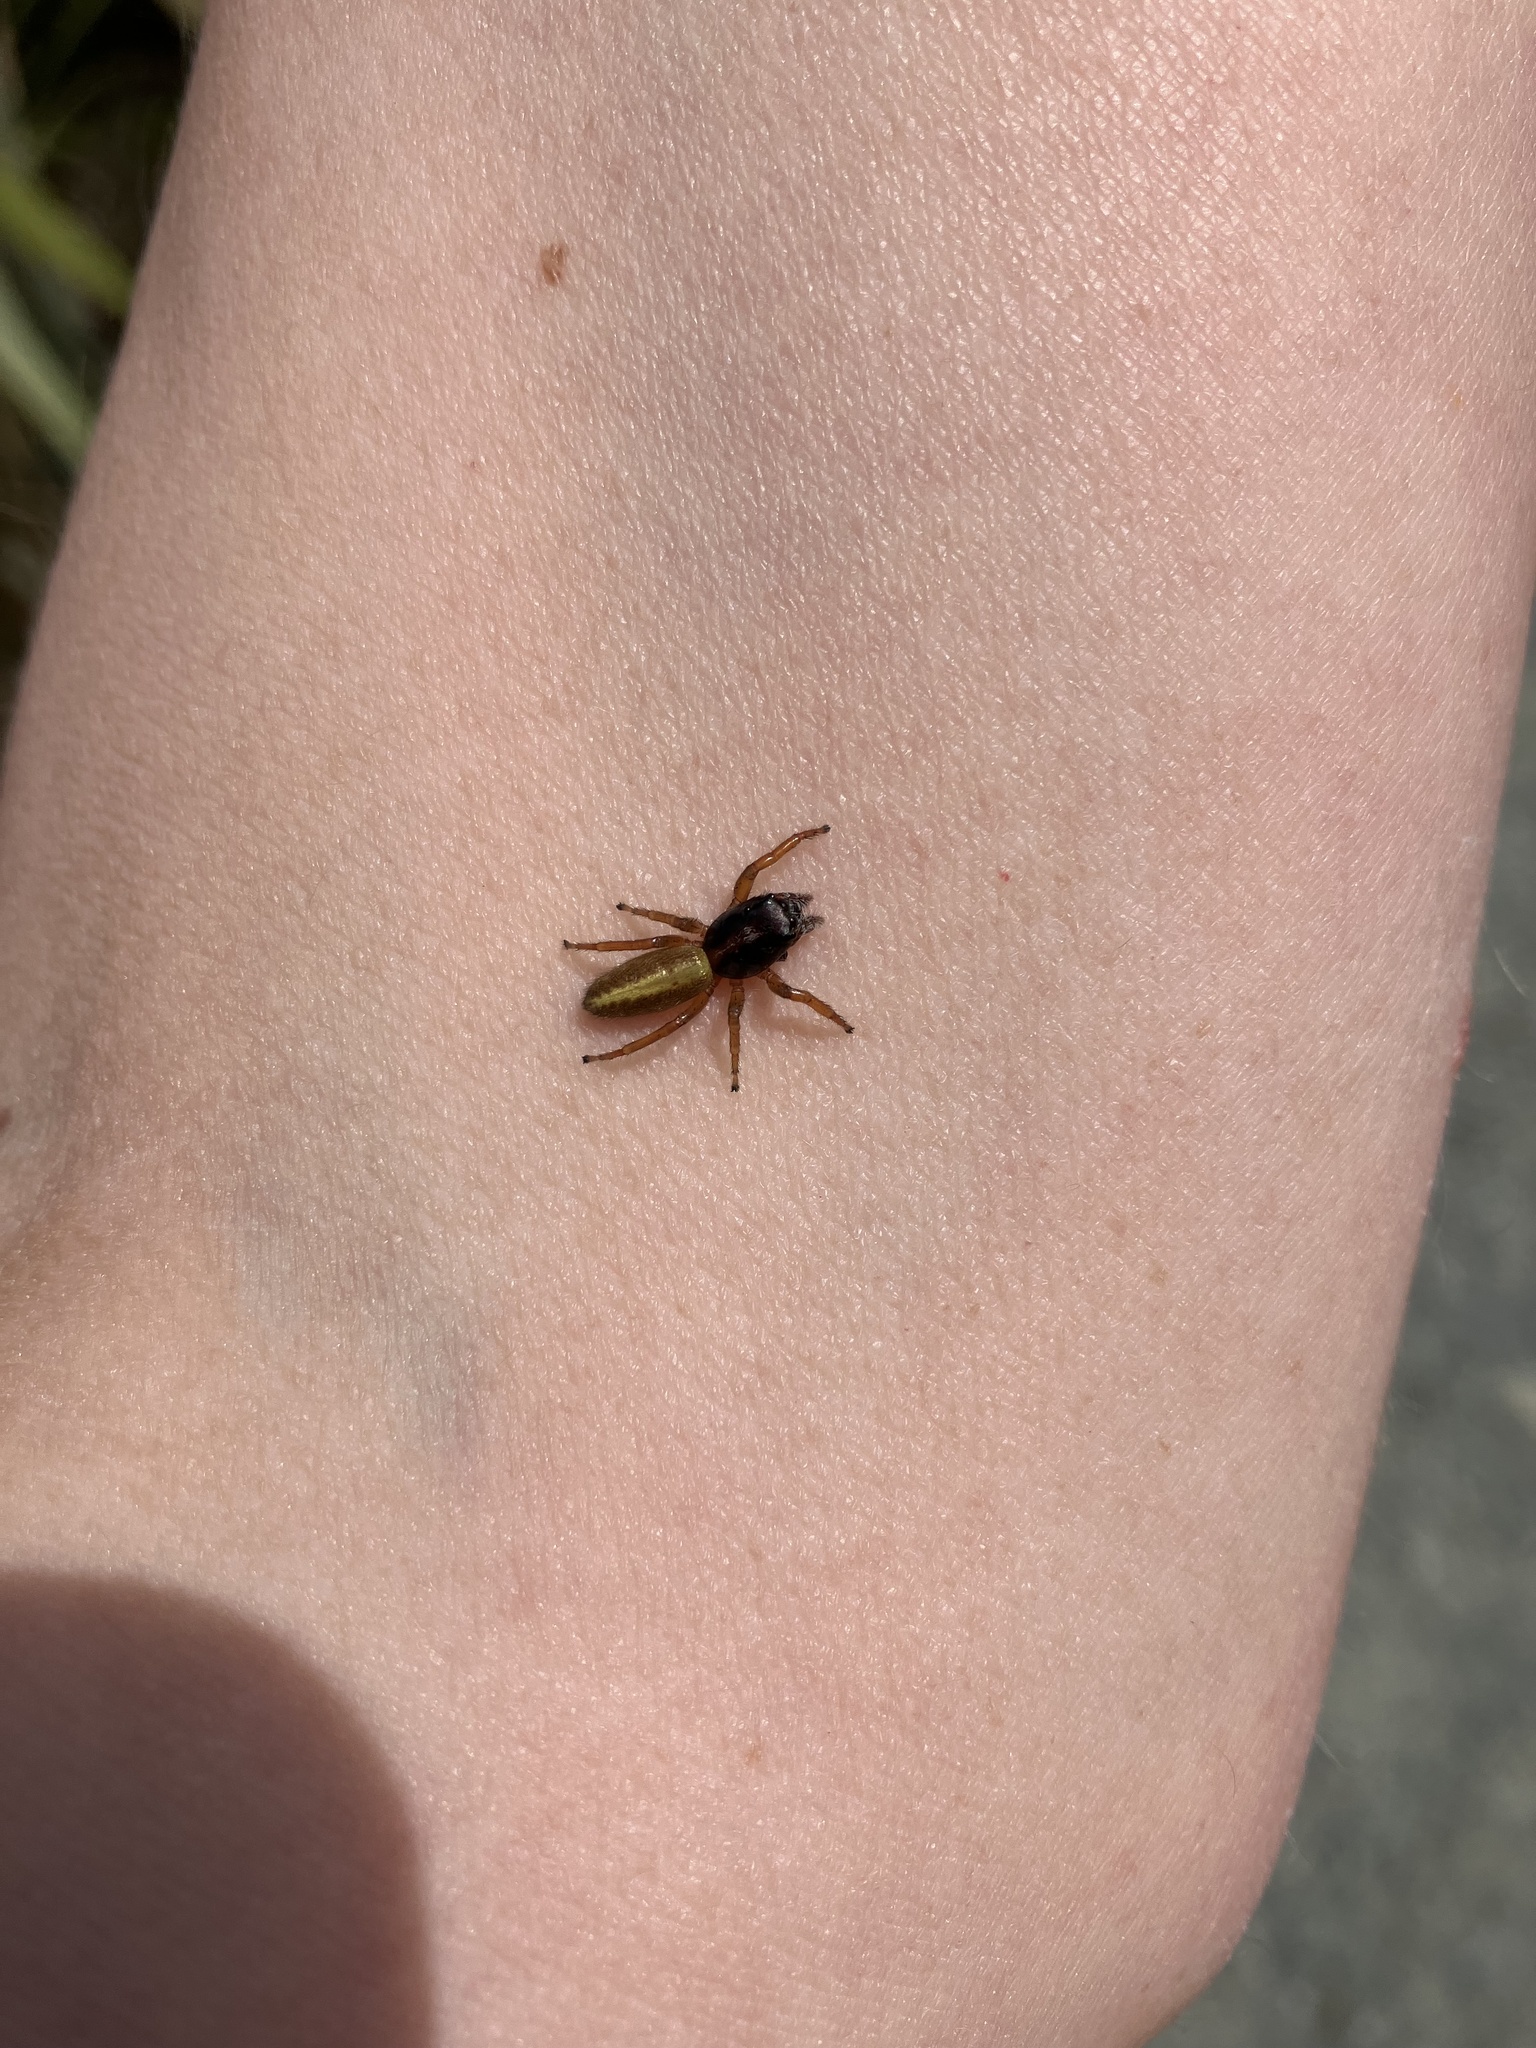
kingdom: Animalia
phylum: Arthropoda
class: Arachnida
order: Araneae
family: Salticidae
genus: Trite
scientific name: Trite planiceps
